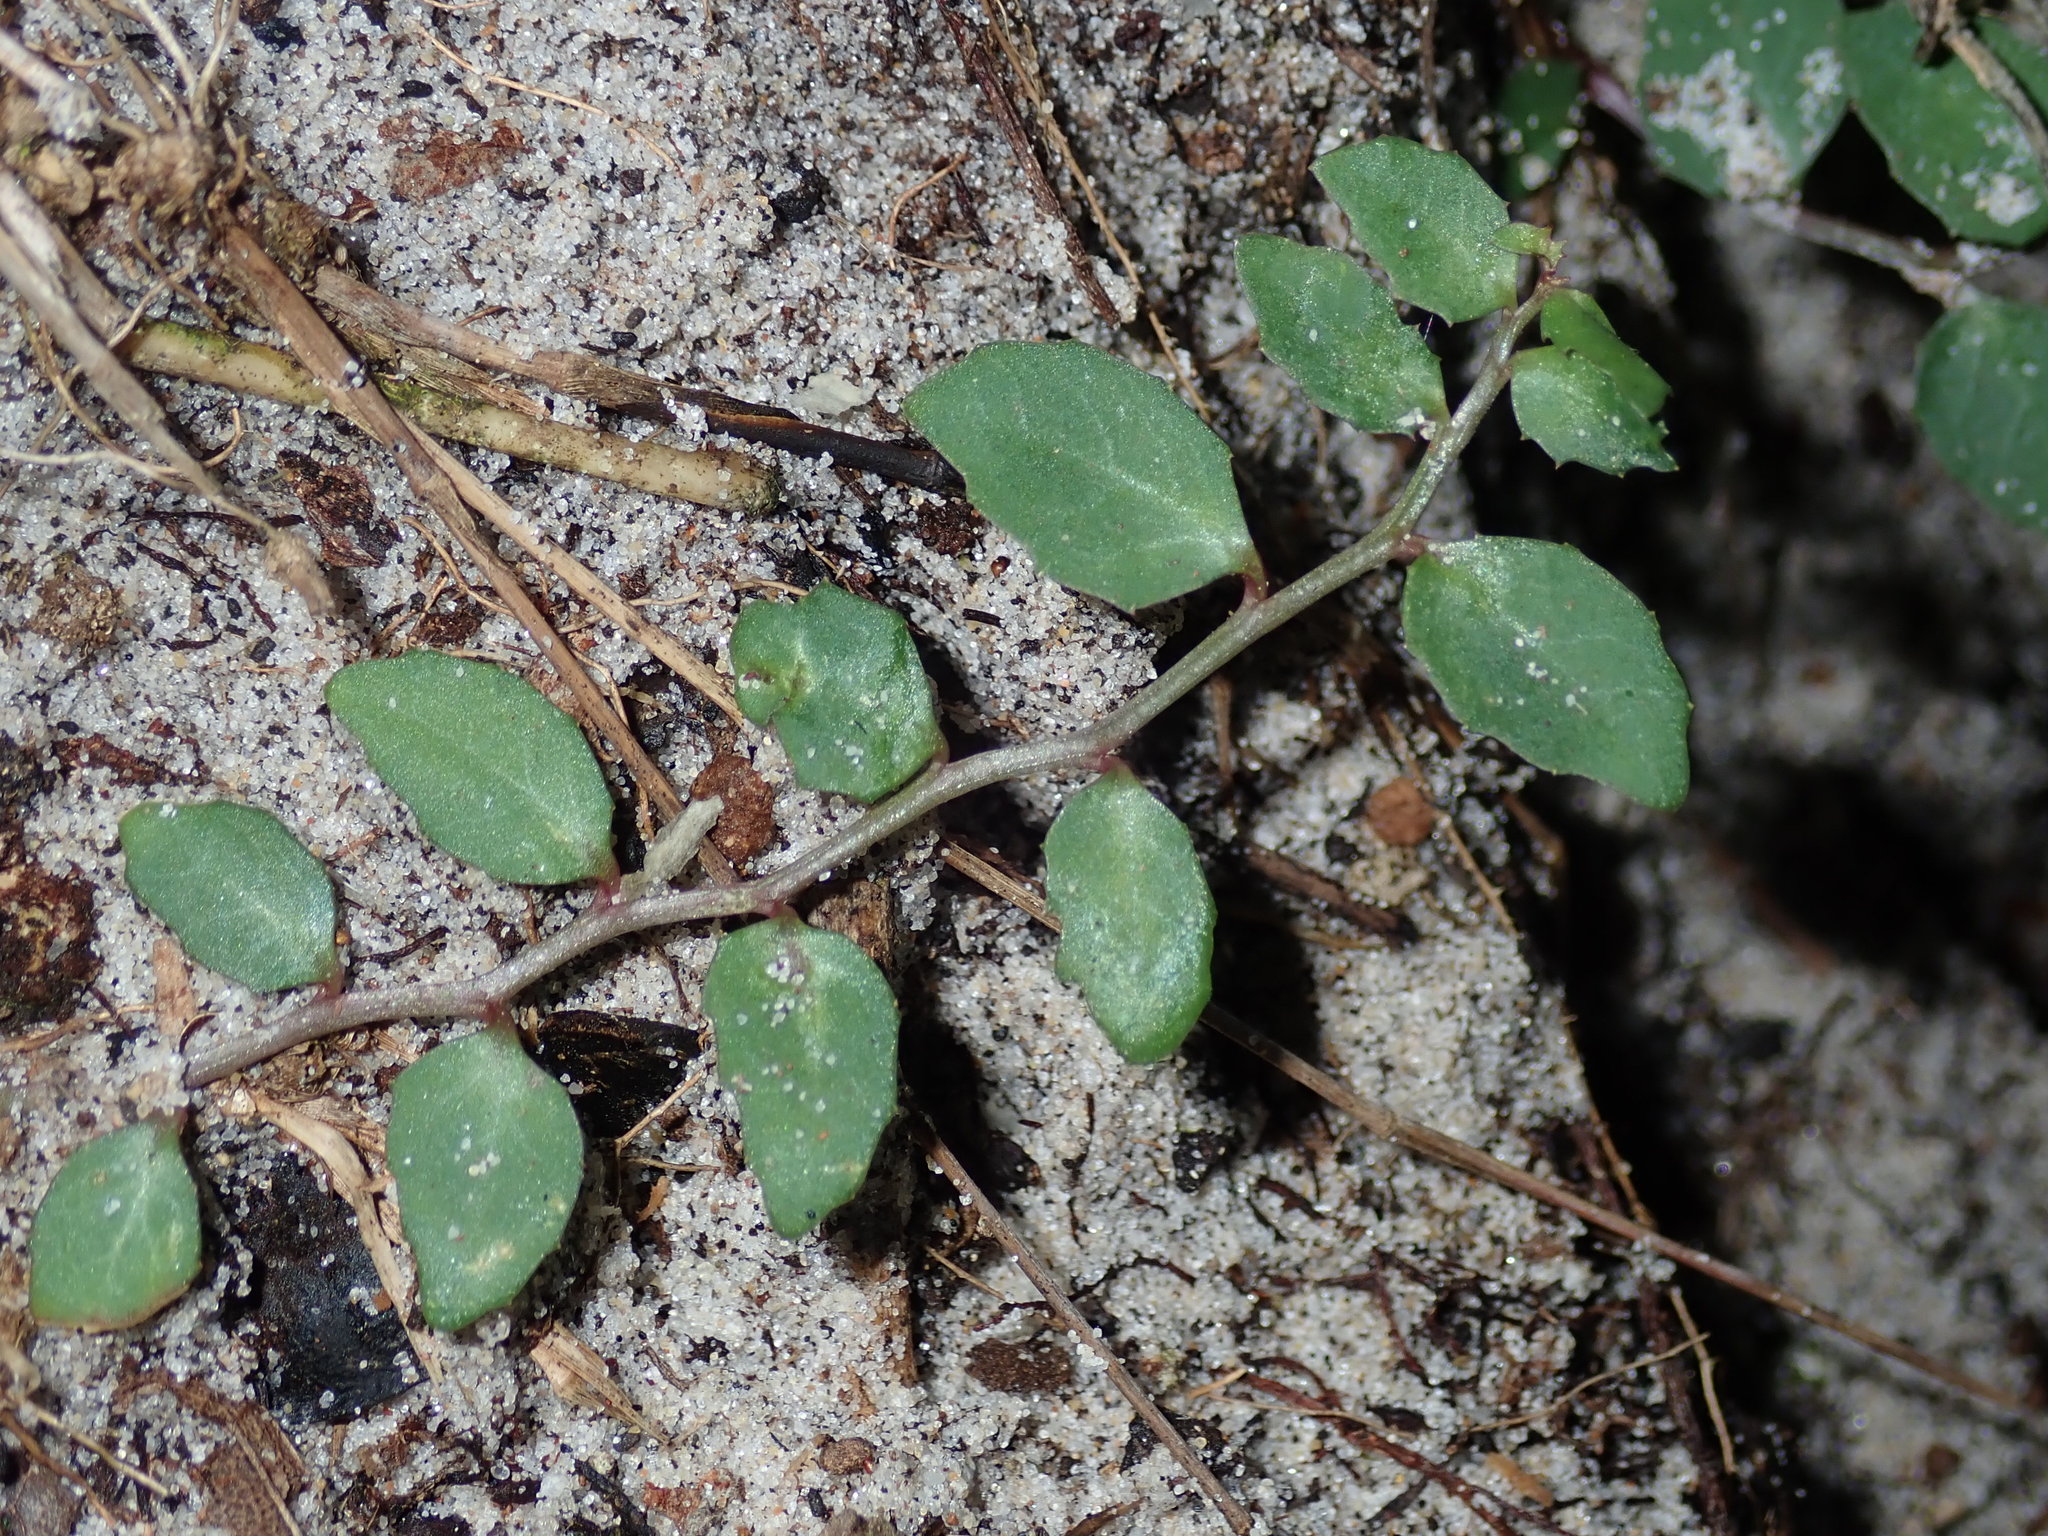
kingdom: Plantae
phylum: Tracheophyta
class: Magnoliopsida
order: Asterales
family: Campanulaceae
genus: Lobelia
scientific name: Lobelia purpurascens
